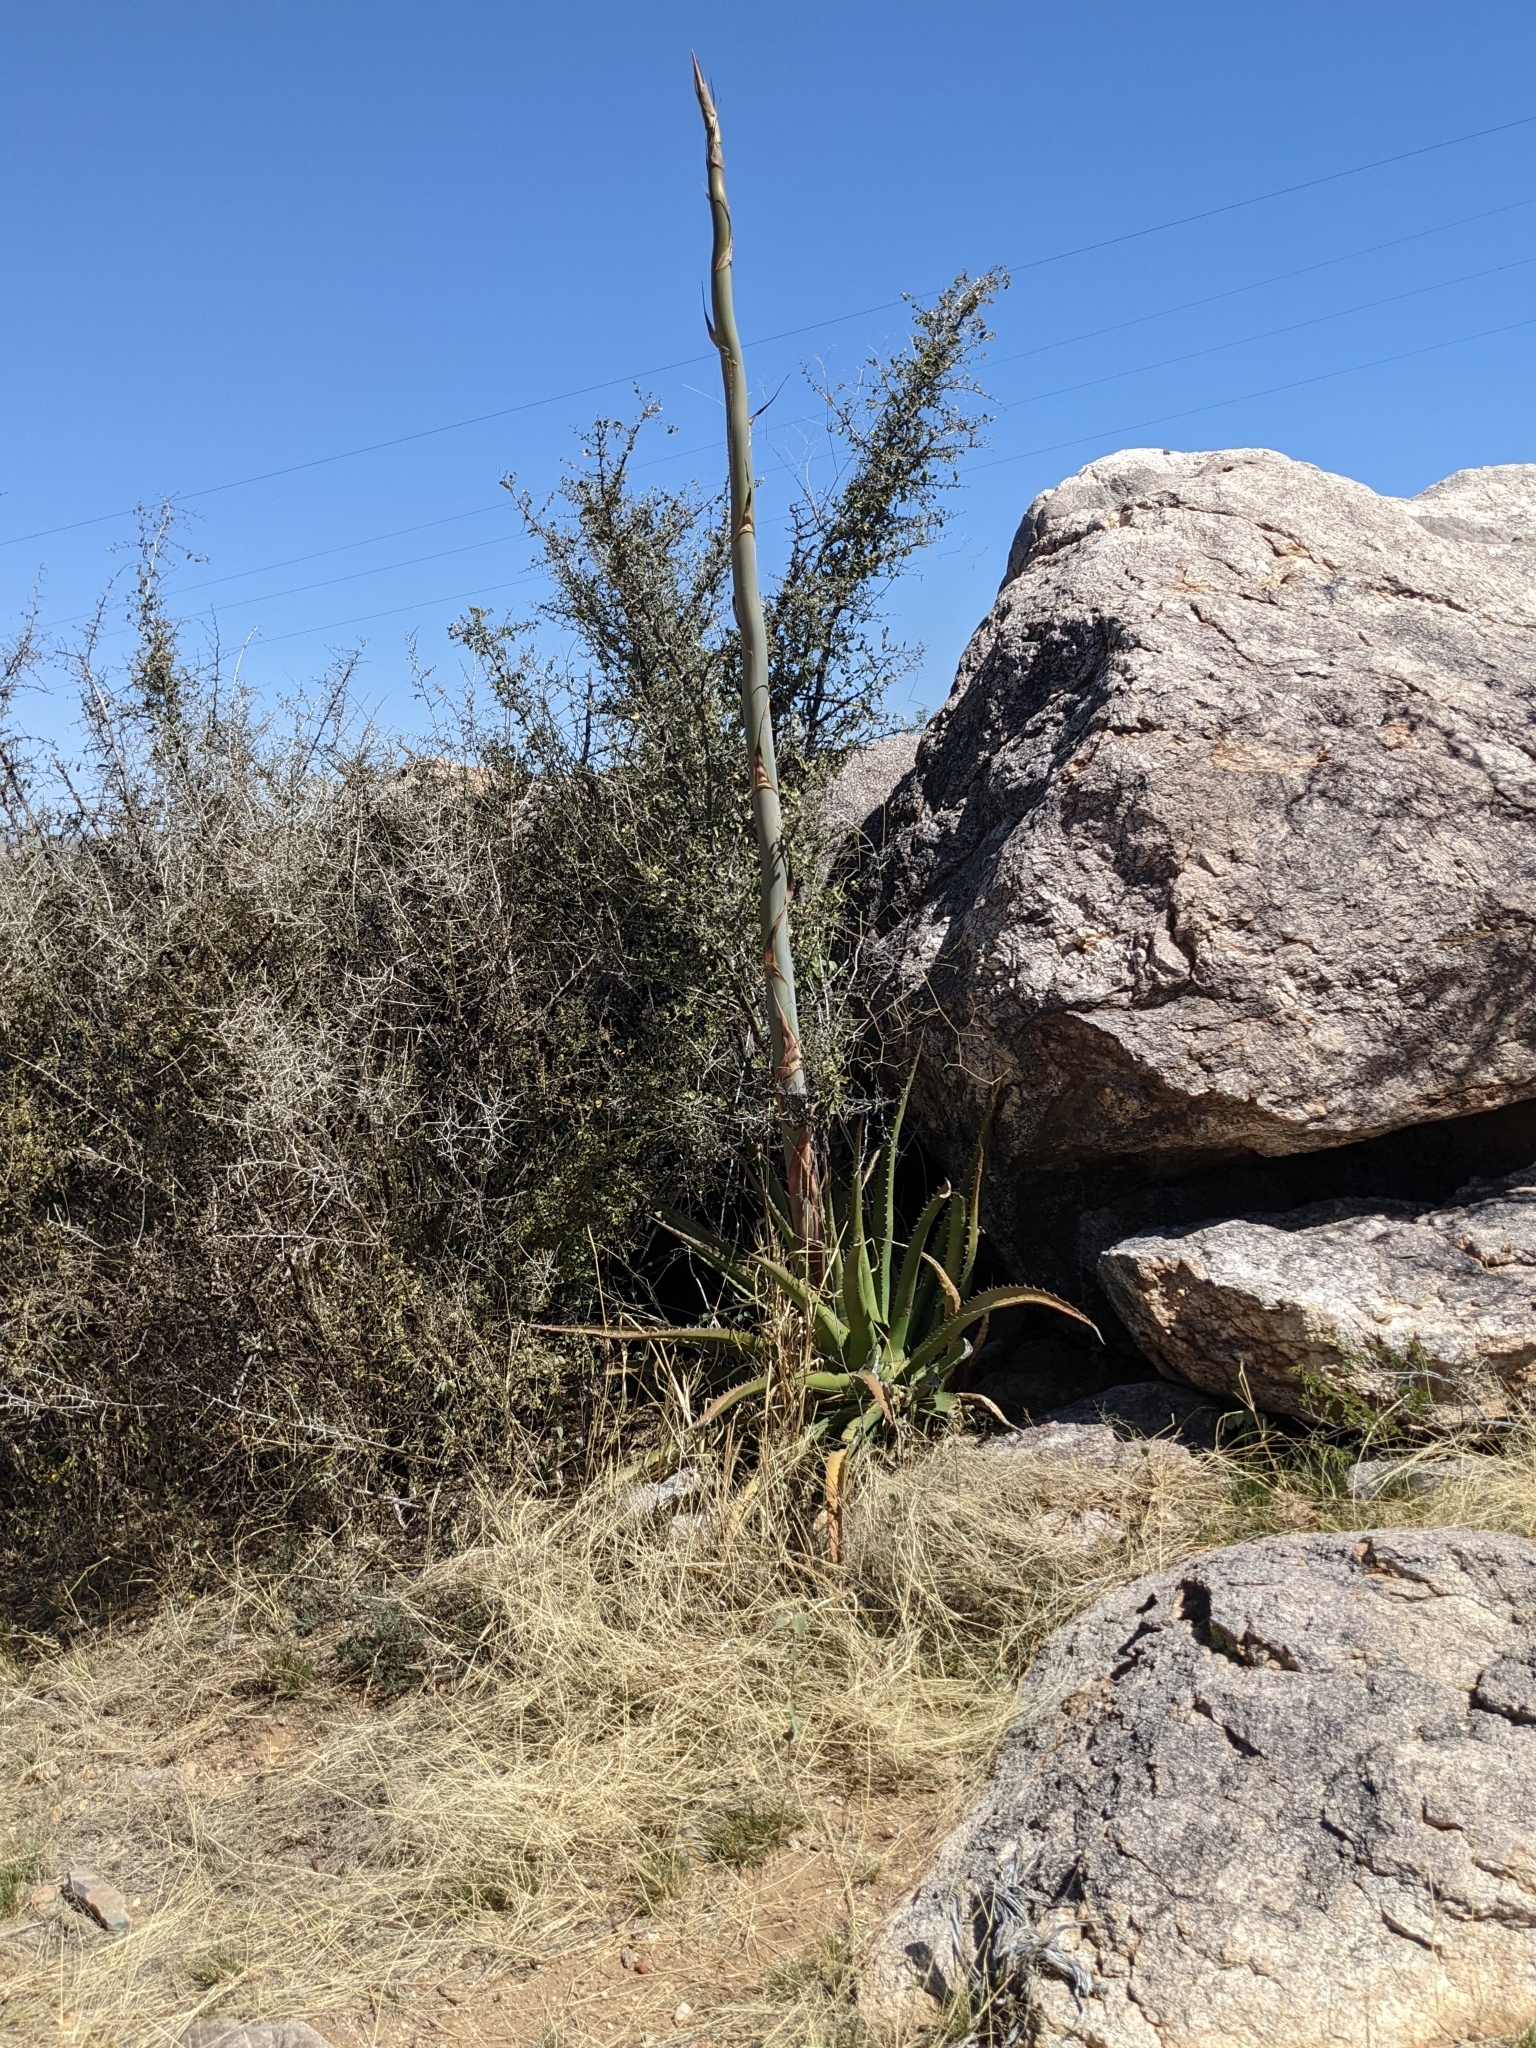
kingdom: Plantae
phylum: Tracheophyta
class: Liliopsida
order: Asparagales
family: Asparagaceae
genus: Agave
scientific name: Agave palmeri
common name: Palmer agave
